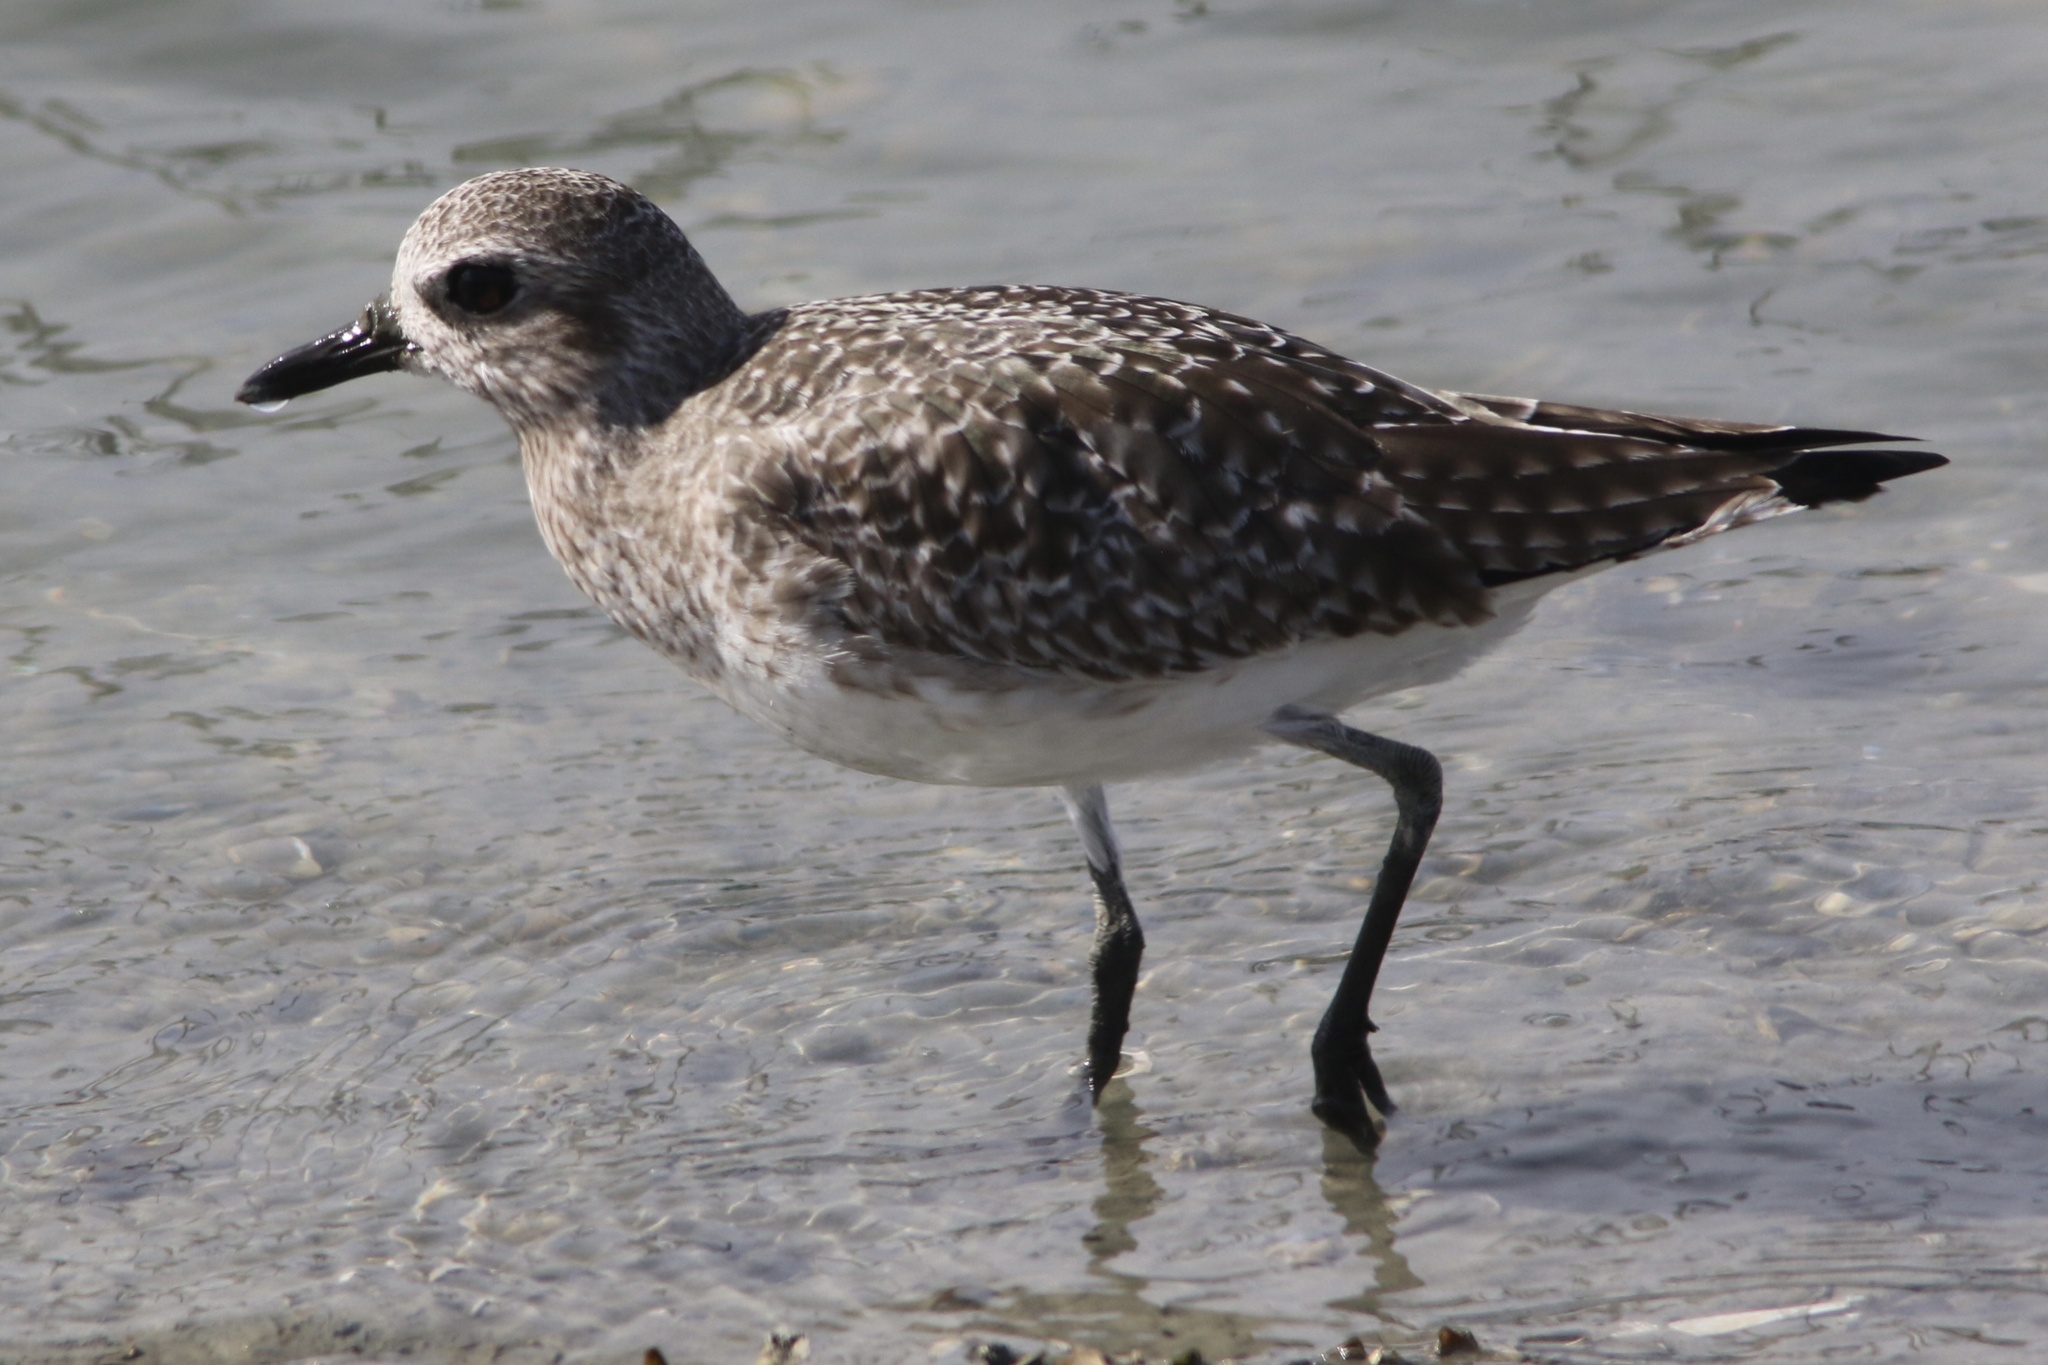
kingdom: Animalia
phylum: Chordata
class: Aves
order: Charadriiformes
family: Charadriidae
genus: Pluvialis
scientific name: Pluvialis squatarola
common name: Grey plover
